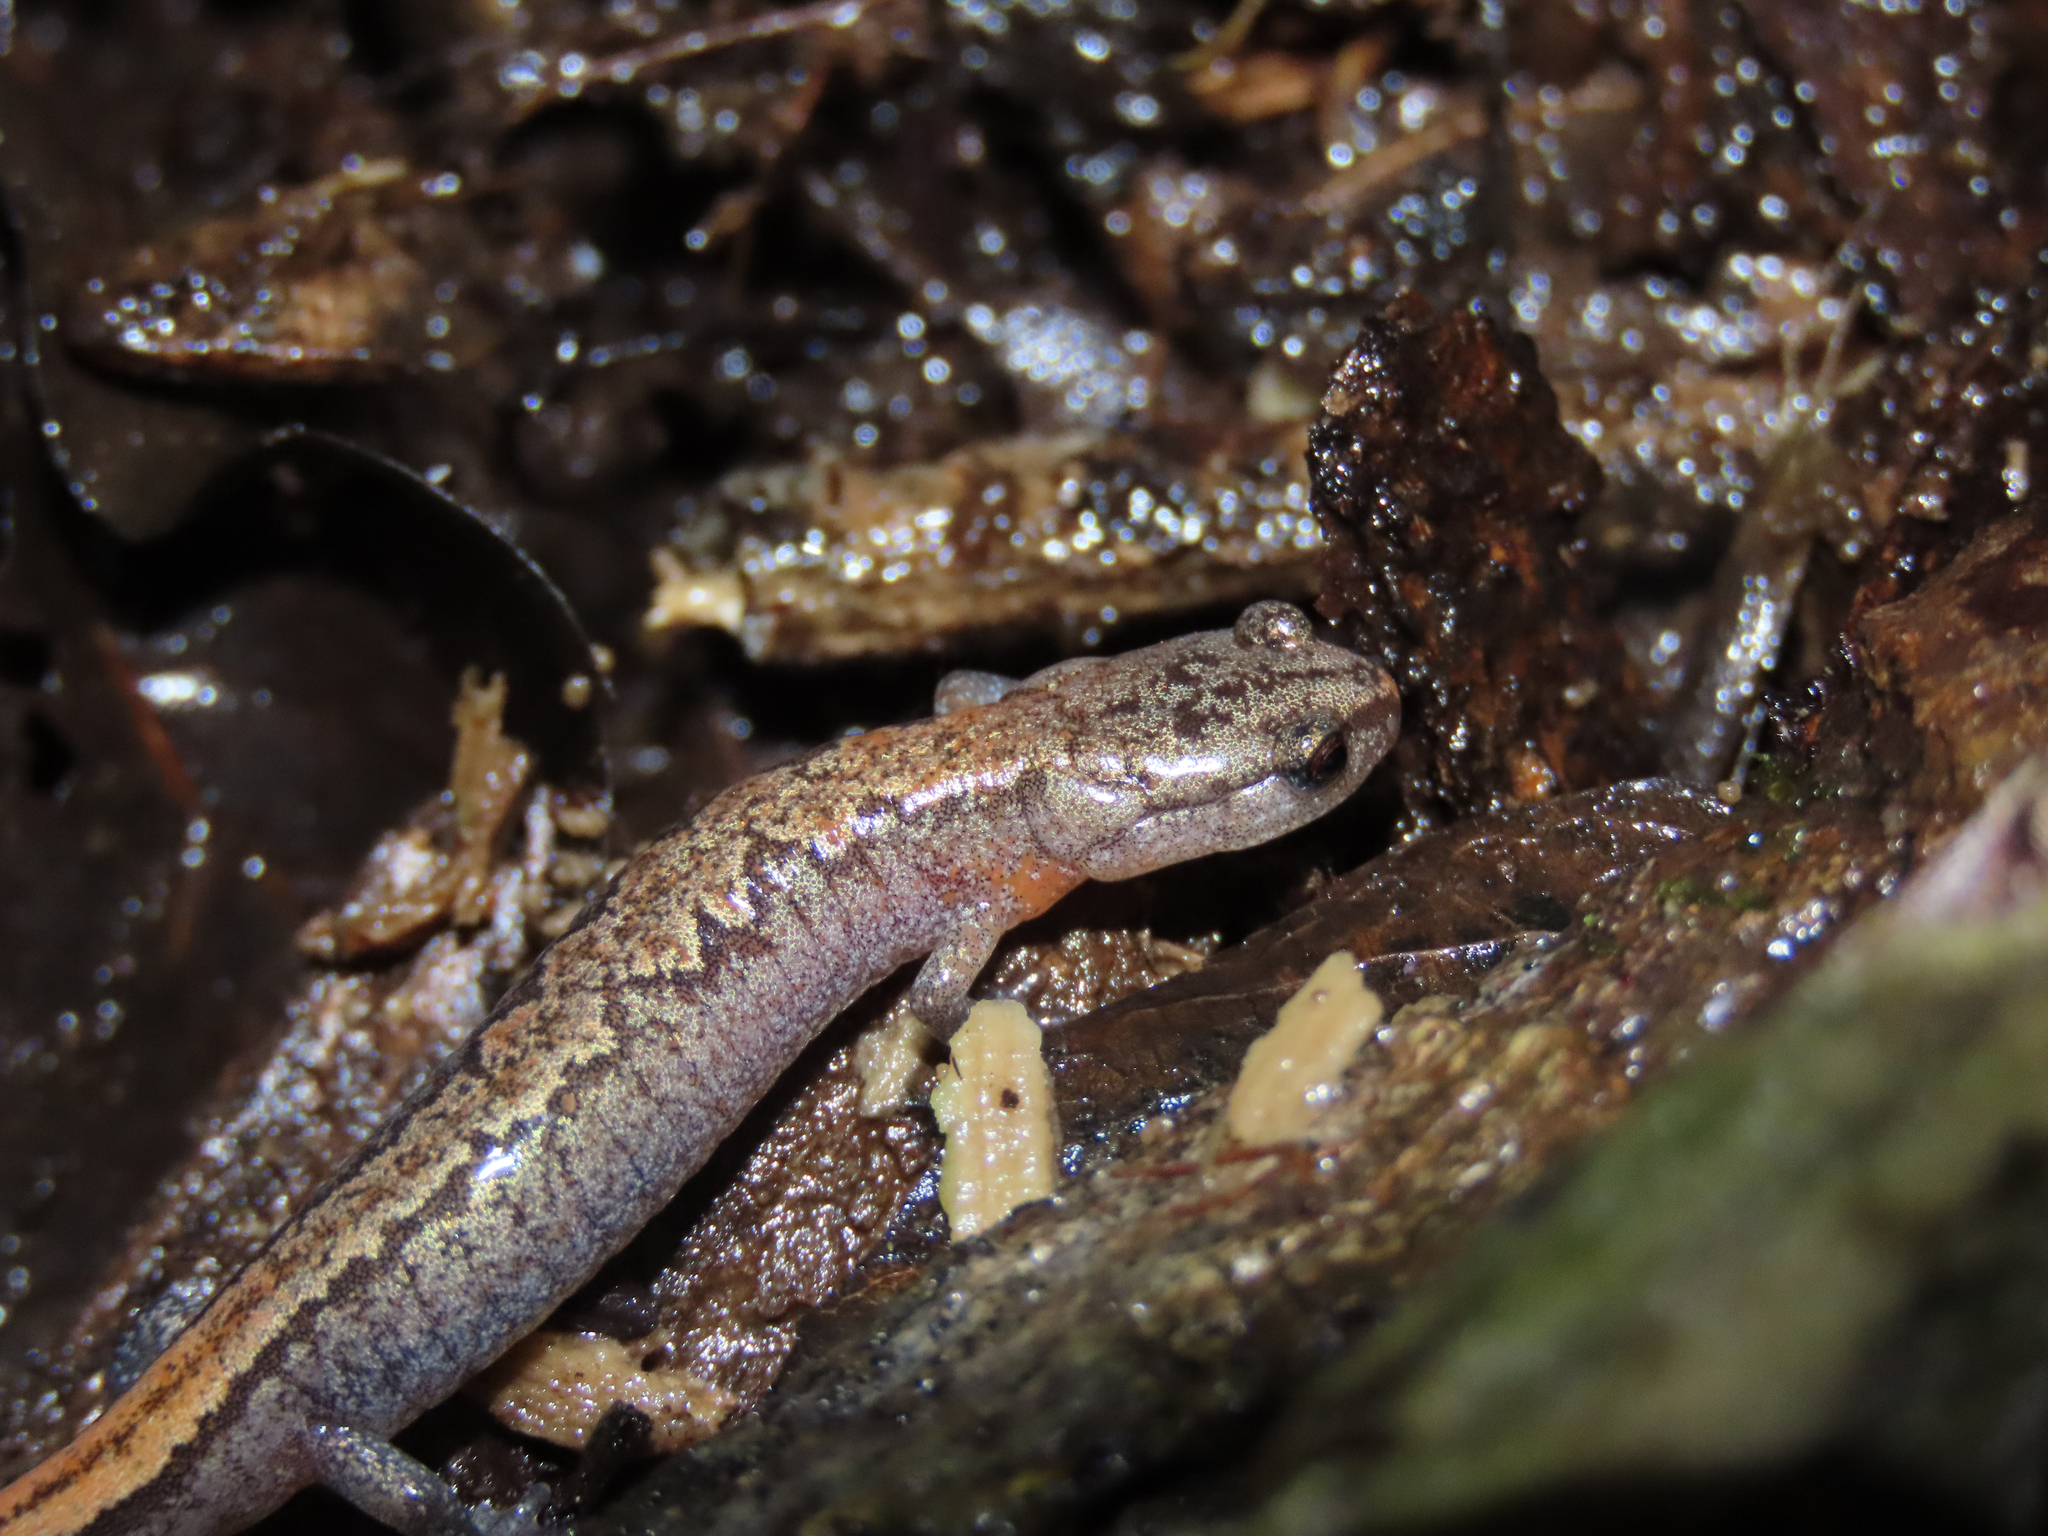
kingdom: Animalia
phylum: Chordata
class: Amphibia
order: Caudata
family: Plethodontidae
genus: Plethodon
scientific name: Plethodon dorsalis
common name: Northern zigzag salamander
